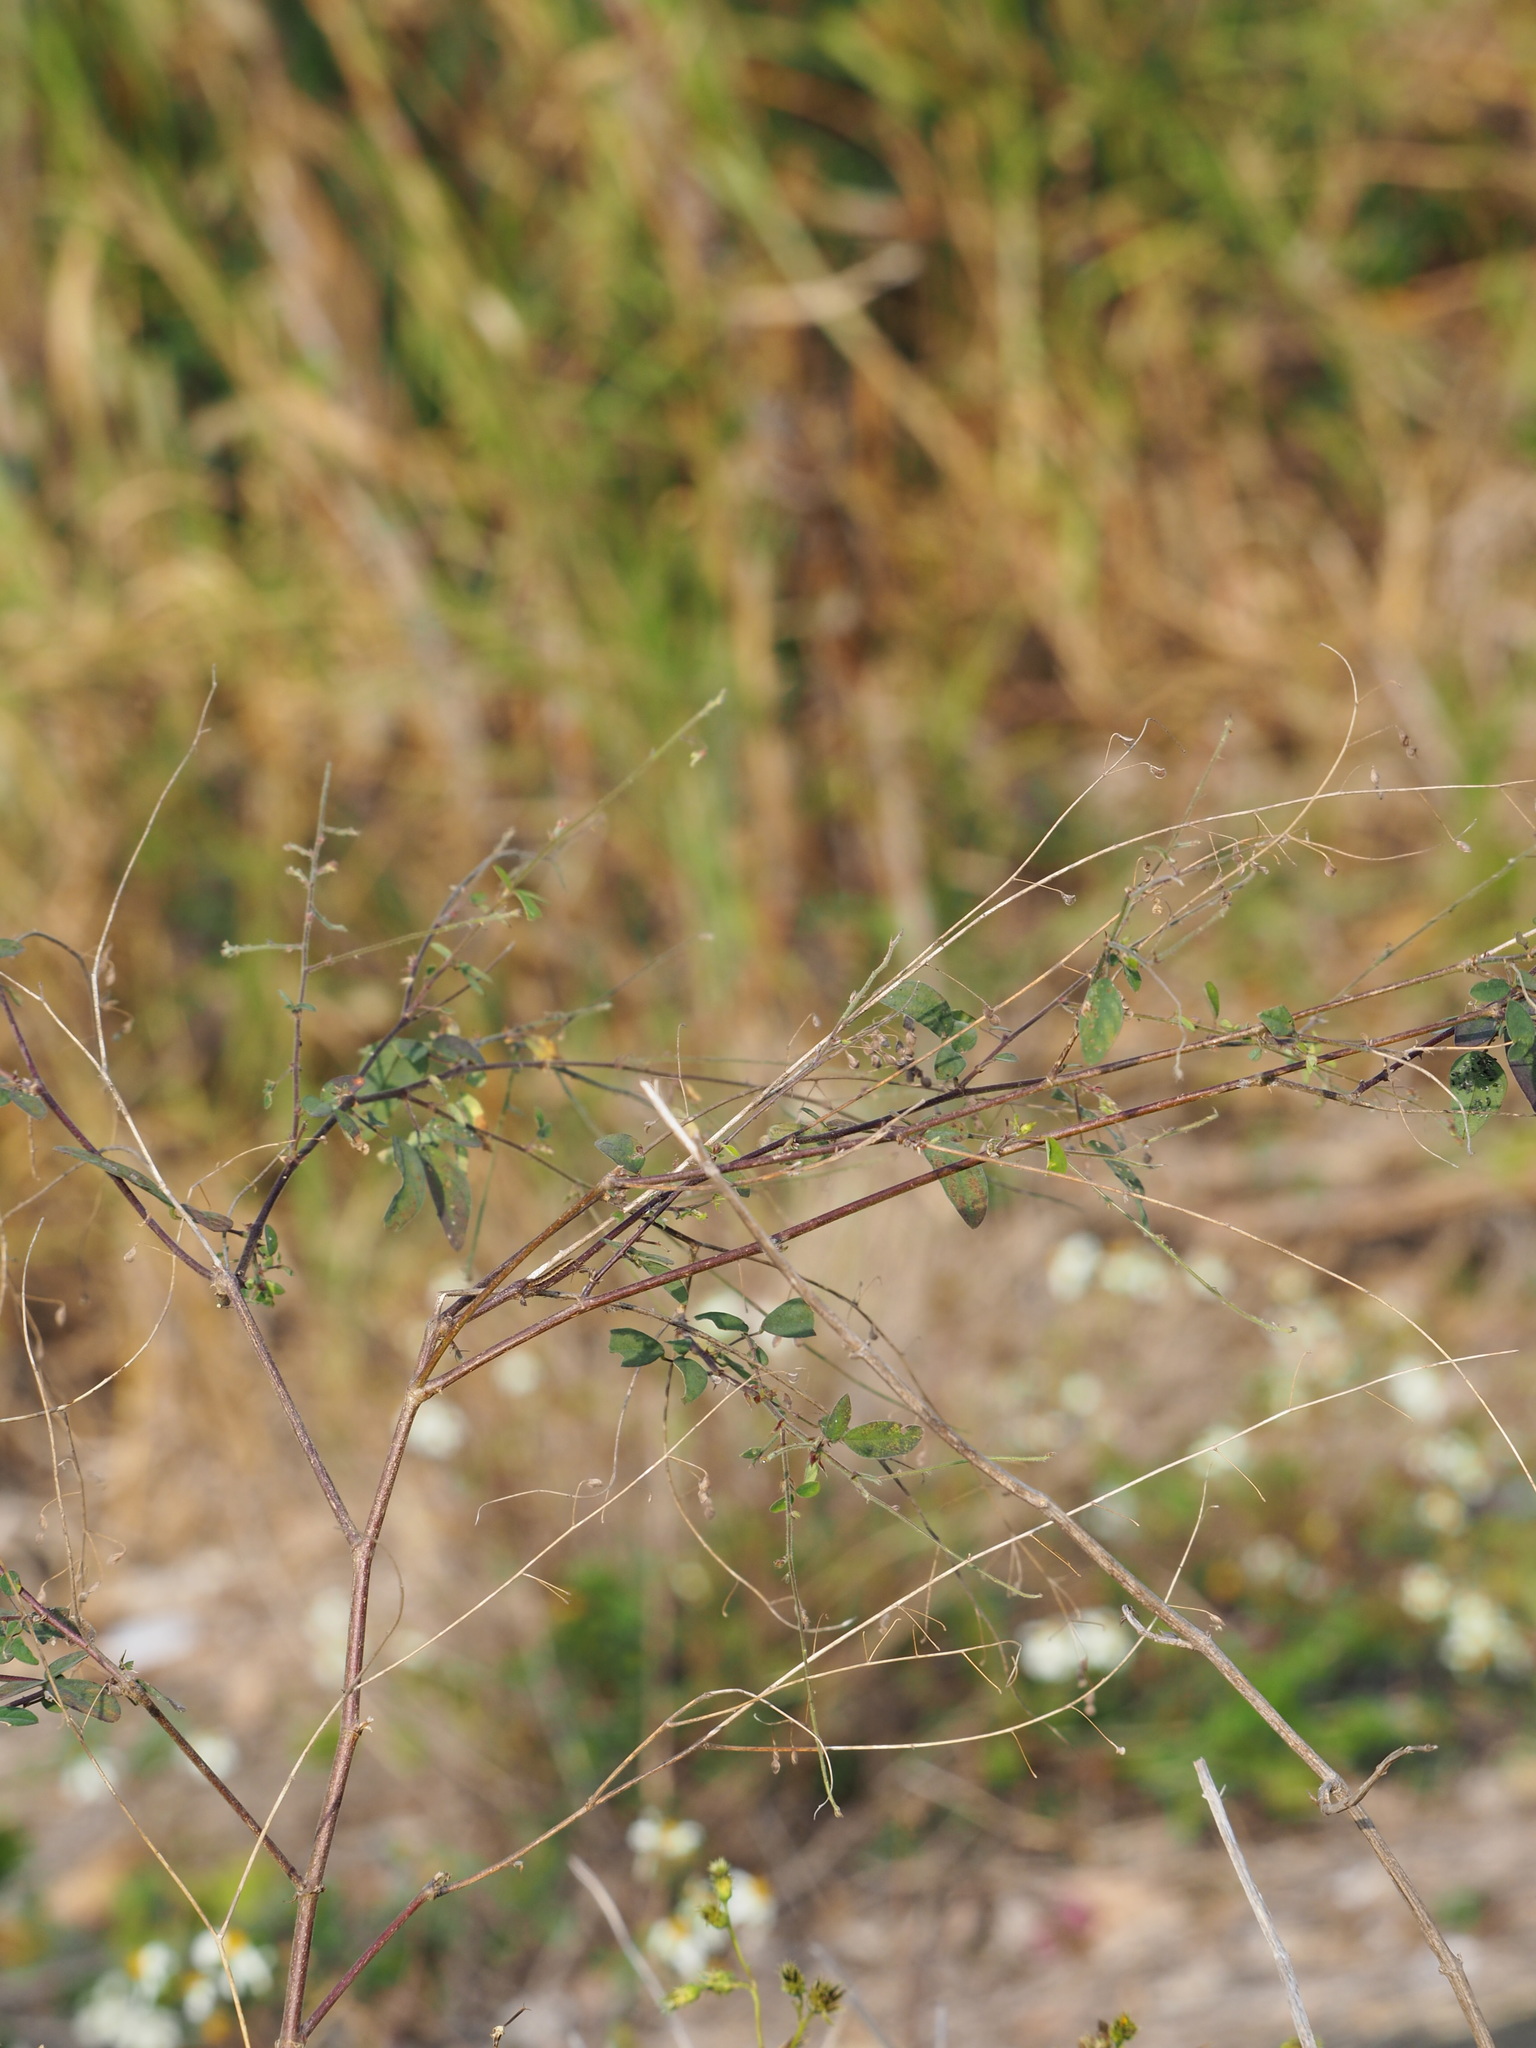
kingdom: Plantae
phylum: Tracheophyta
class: Magnoliopsida
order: Fabales
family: Fabaceae
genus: Desmodium
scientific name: Desmodium tortuosum
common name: Dixie ticktrefoil
